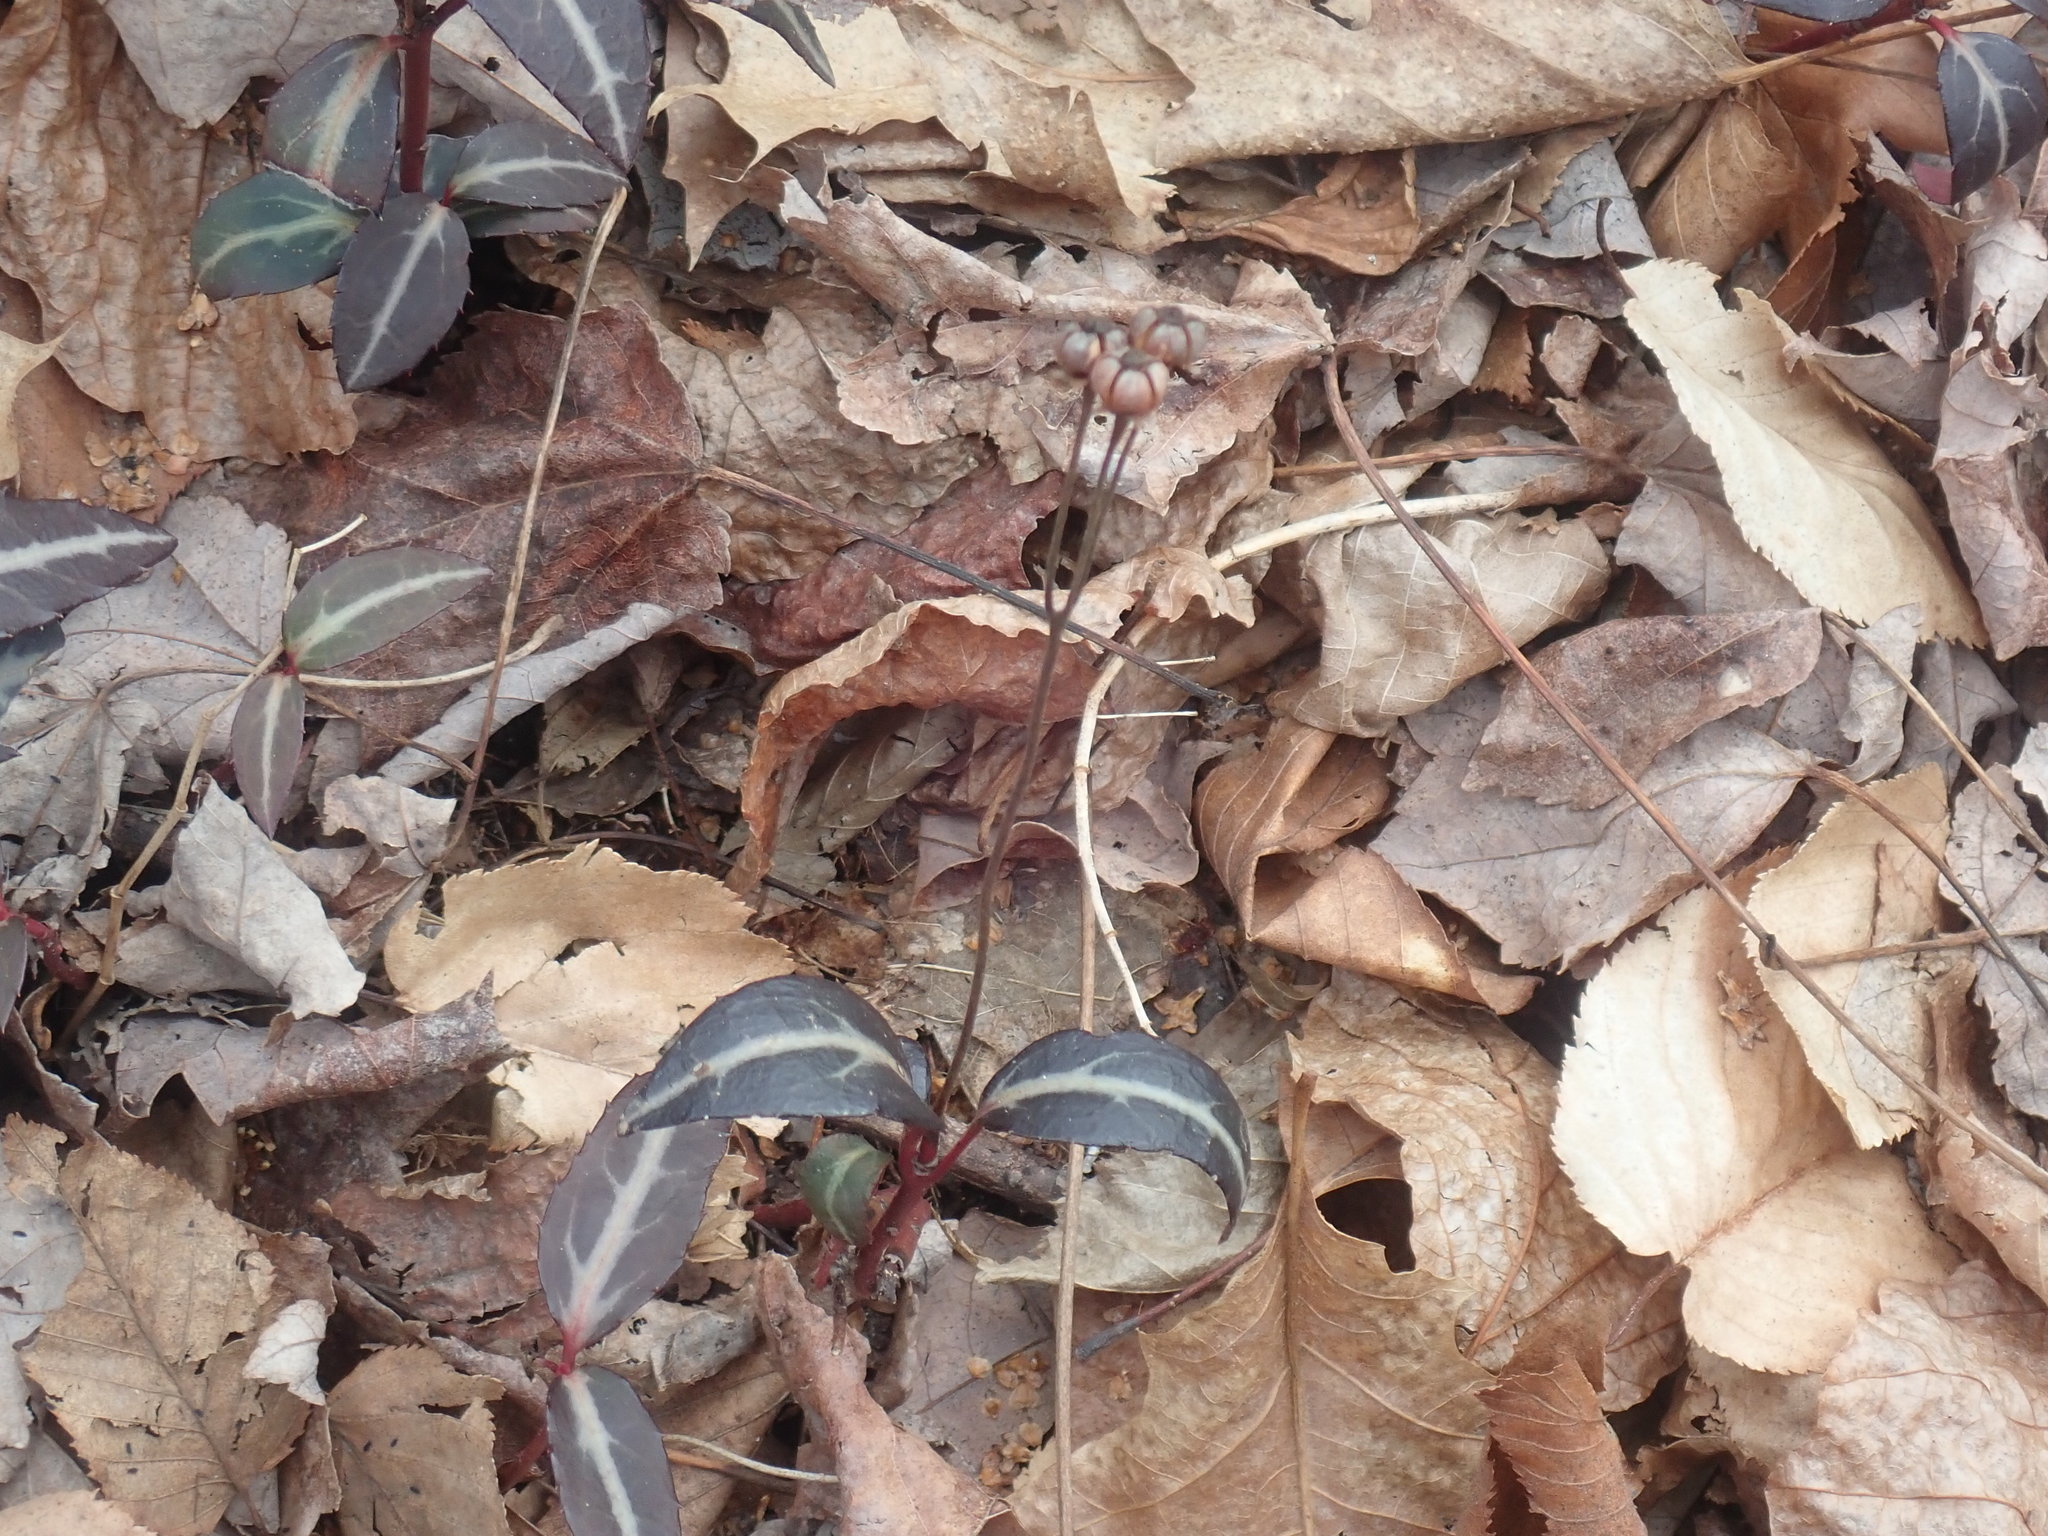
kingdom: Plantae
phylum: Tracheophyta
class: Magnoliopsida
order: Ericales
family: Ericaceae
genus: Chimaphila
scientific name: Chimaphila maculata
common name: Spotted pipsissewa
